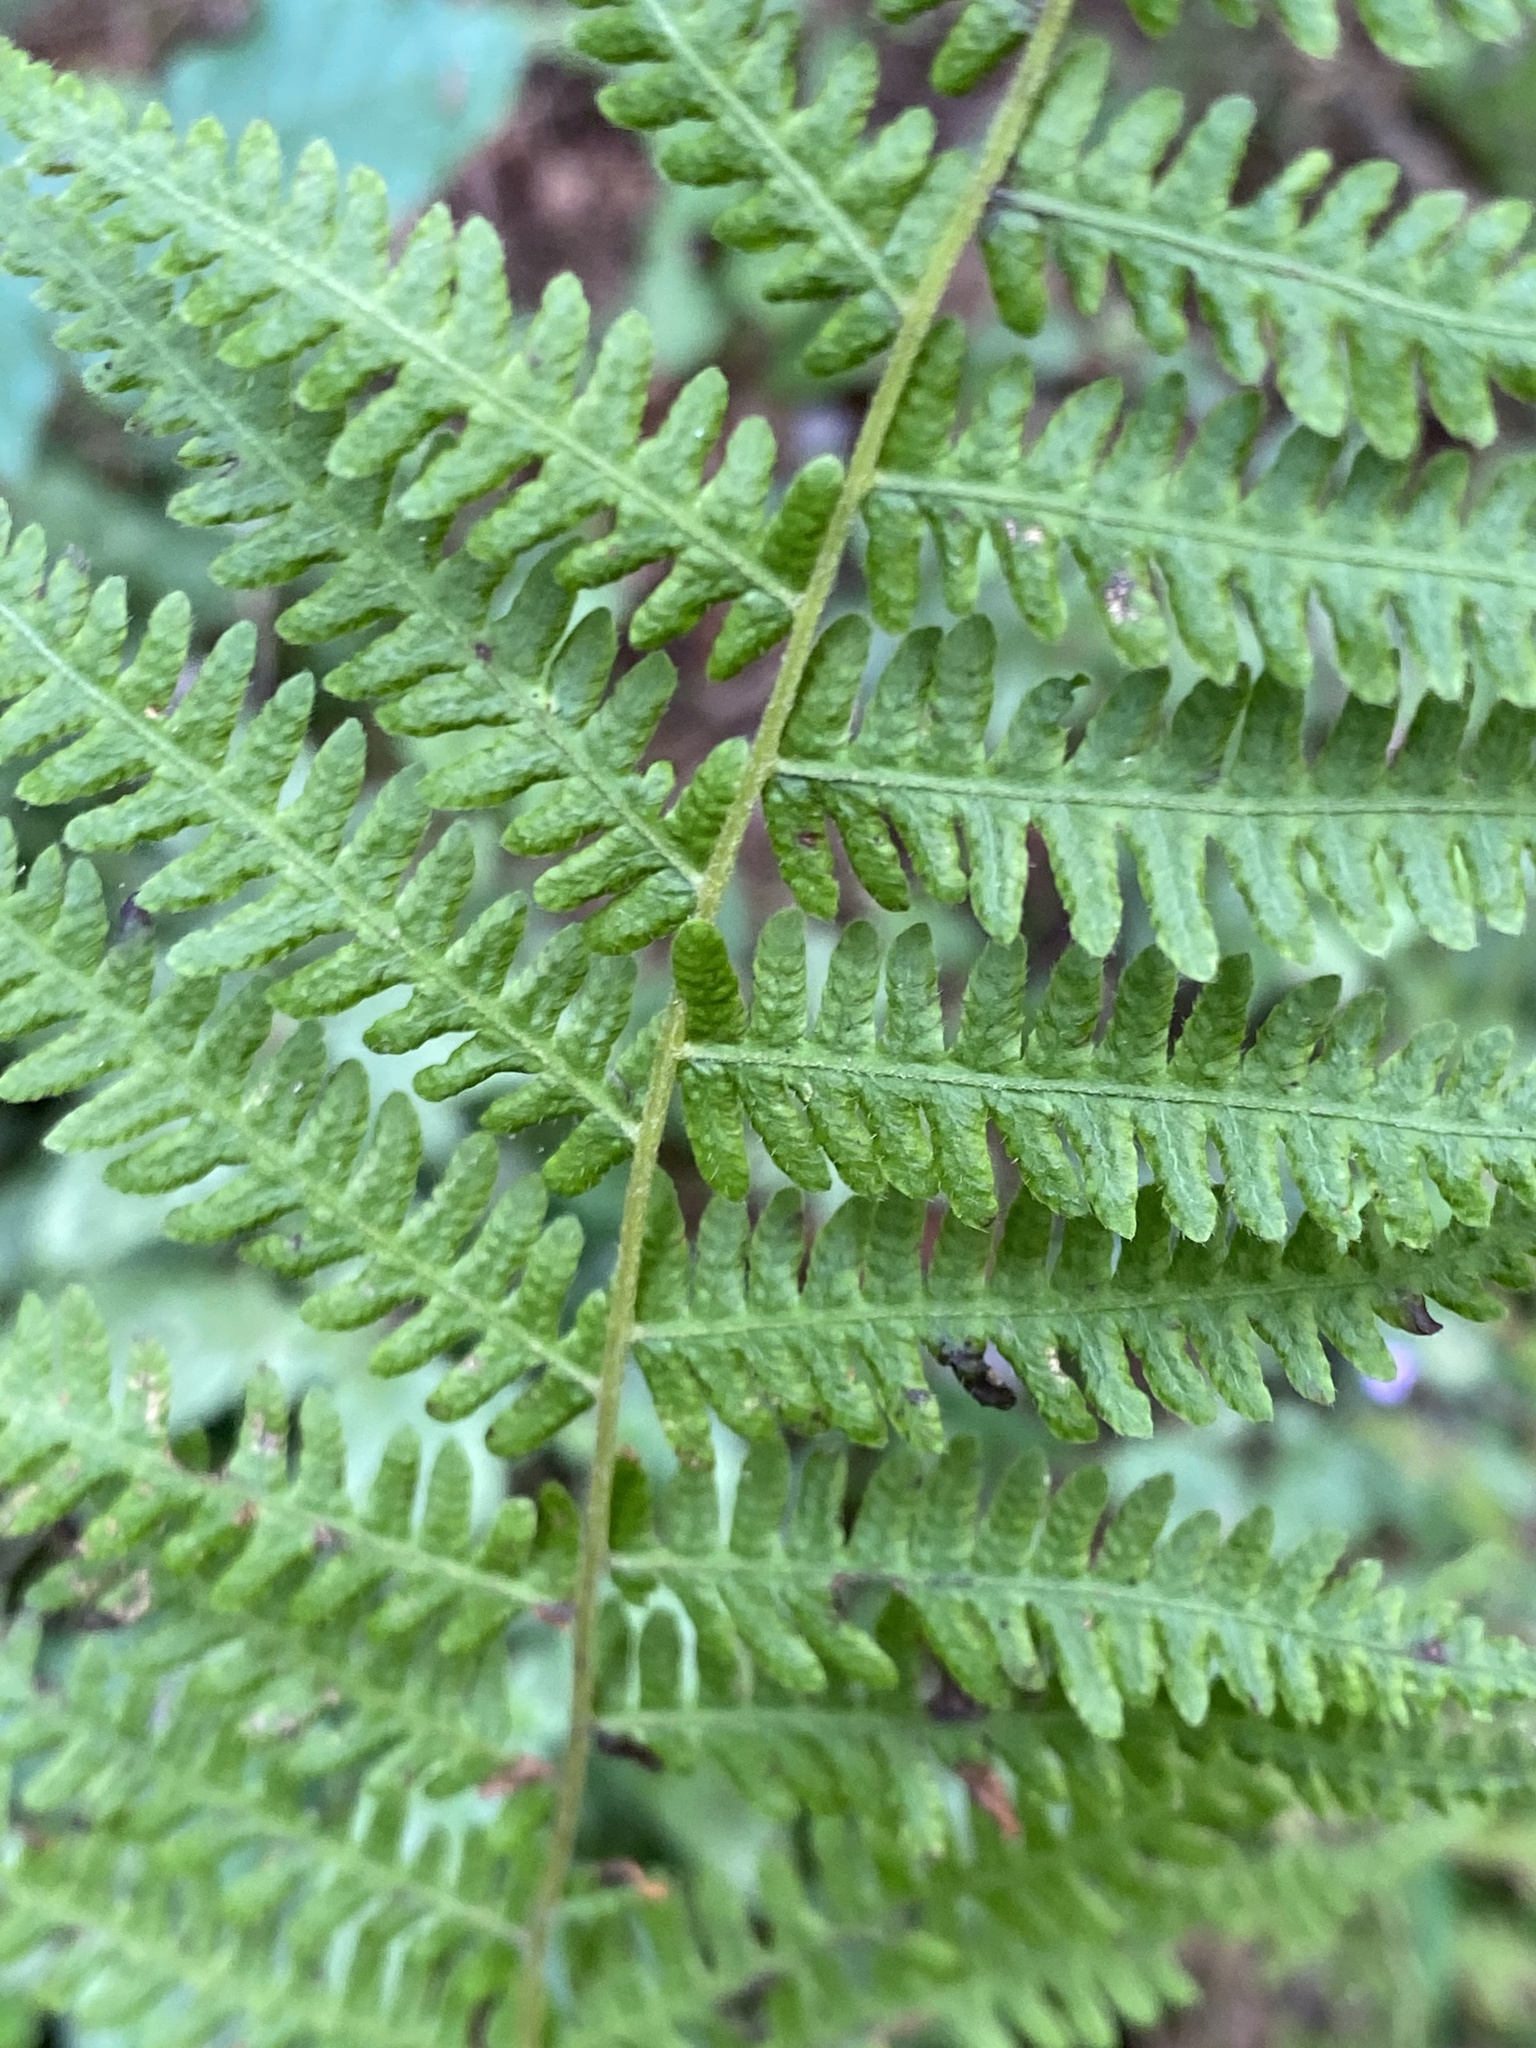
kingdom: Plantae
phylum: Tracheophyta
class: Polypodiopsida
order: Polypodiales
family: Thelypteridaceae
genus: Amauropelta
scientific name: Amauropelta noveboracensis
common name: New york fern
